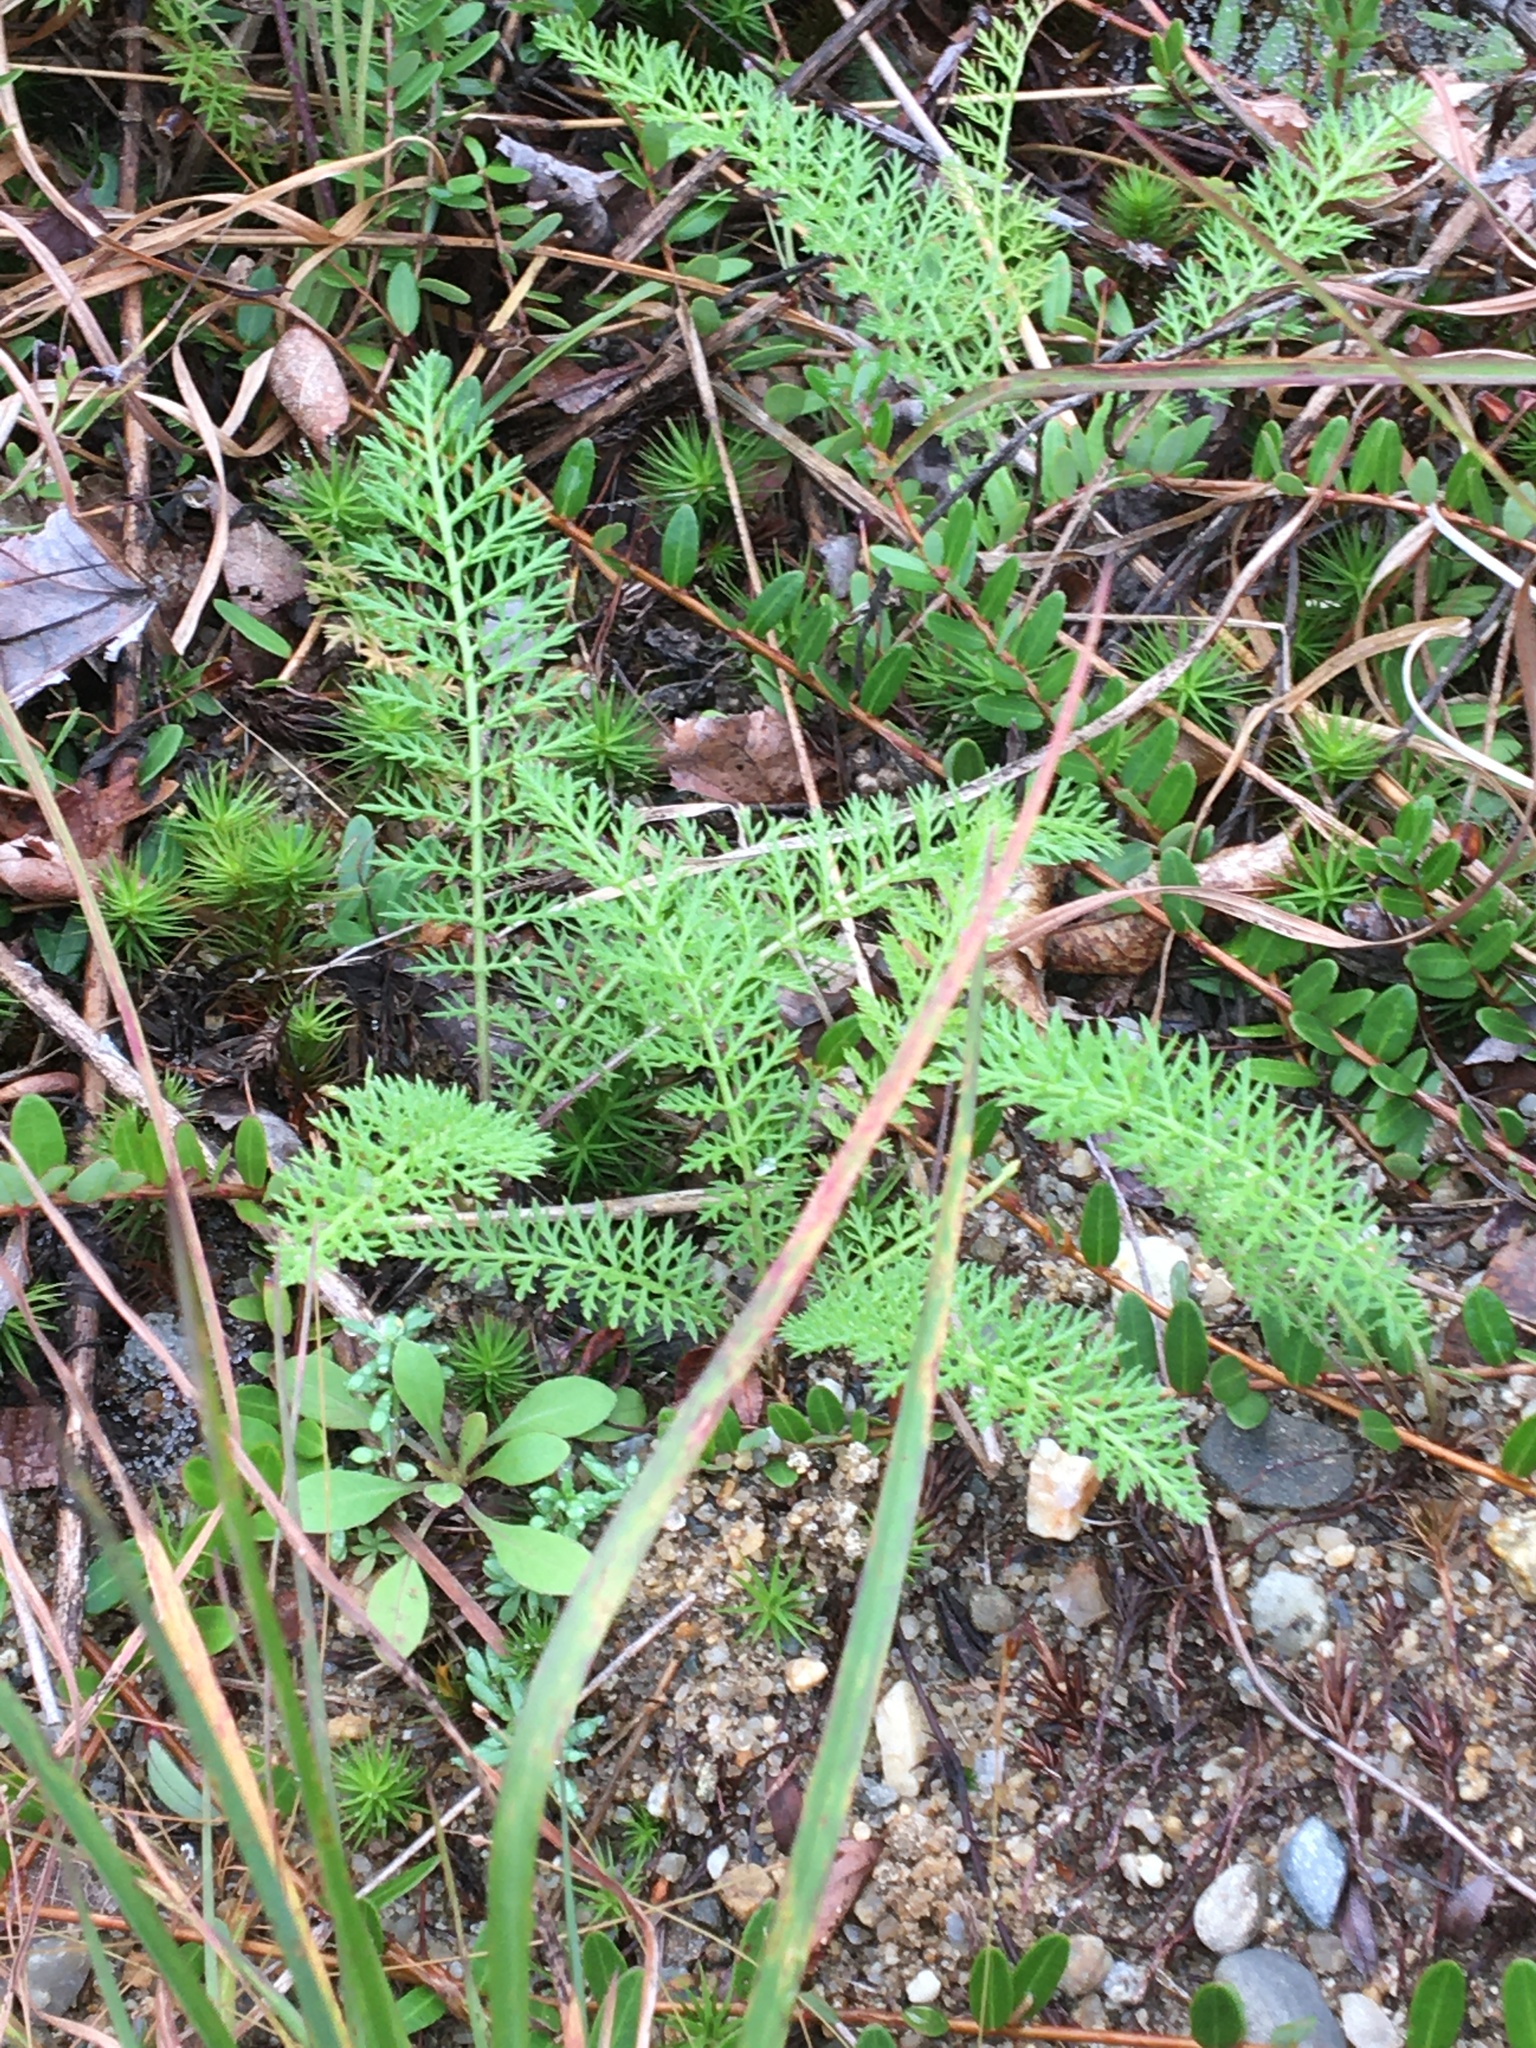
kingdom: Plantae
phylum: Tracheophyta
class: Magnoliopsida
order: Asterales
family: Asteraceae
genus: Achillea
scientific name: Achillea millefolium
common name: Yarrow
